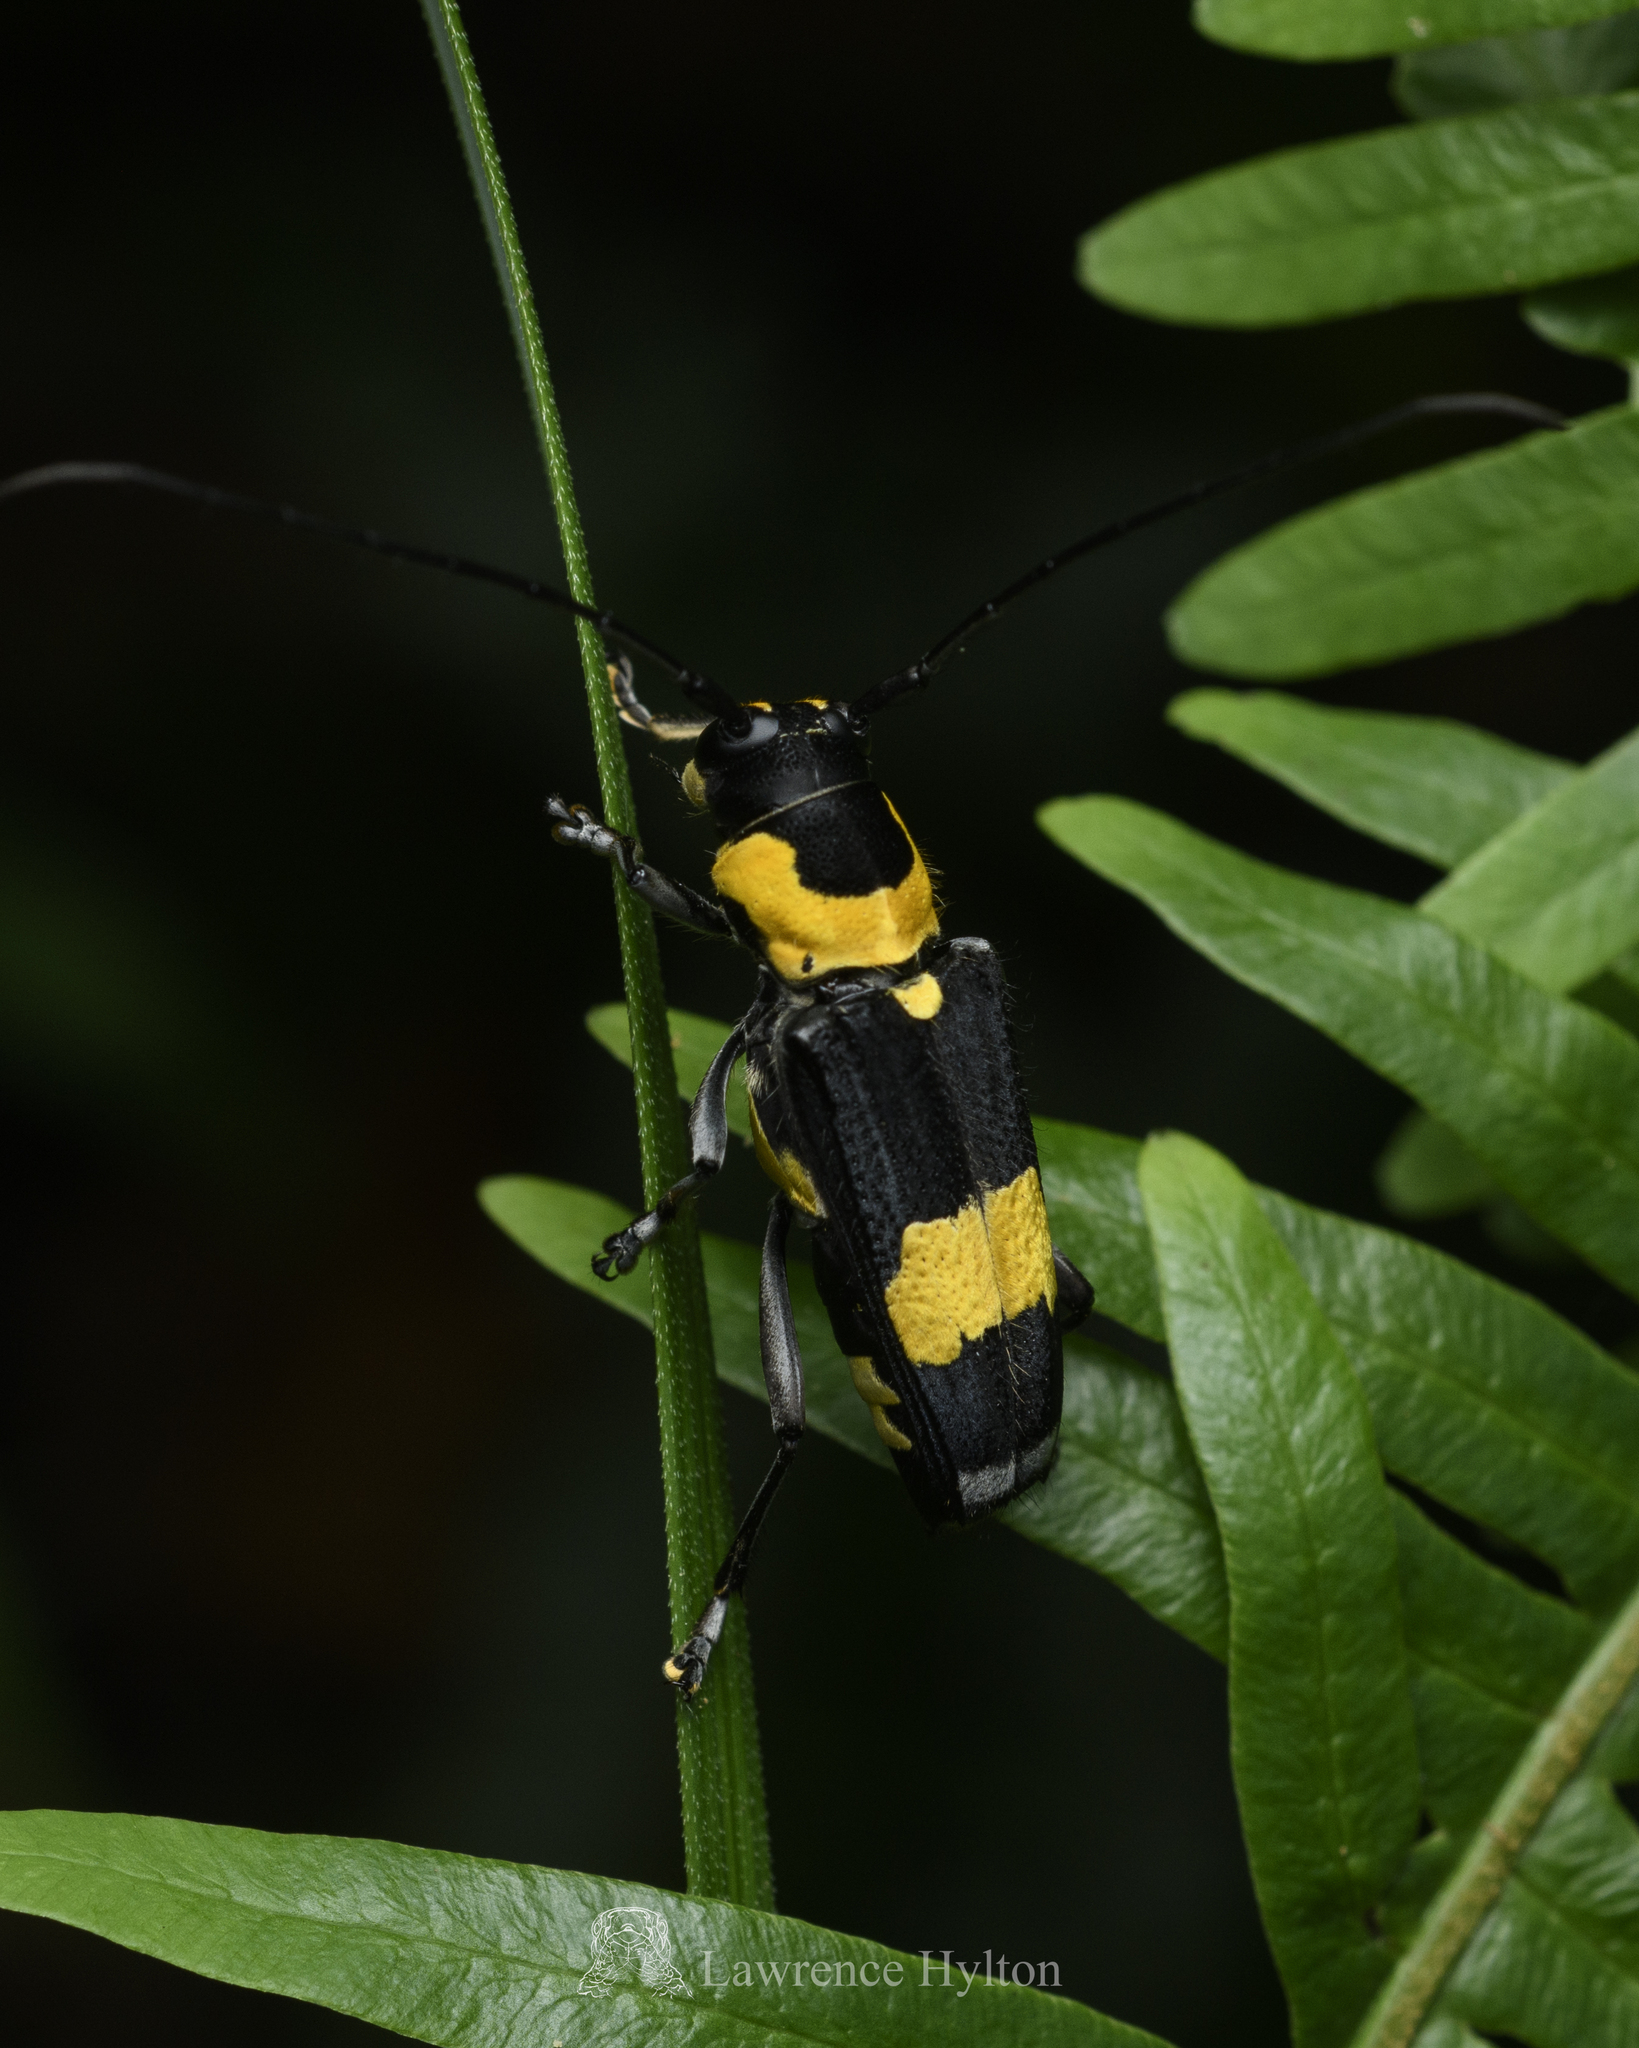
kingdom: Animalia
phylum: Arthropoda
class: Insecta
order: Coleoptera
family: Cerambycidae
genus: Glenea
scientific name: Glenea mouhotii
